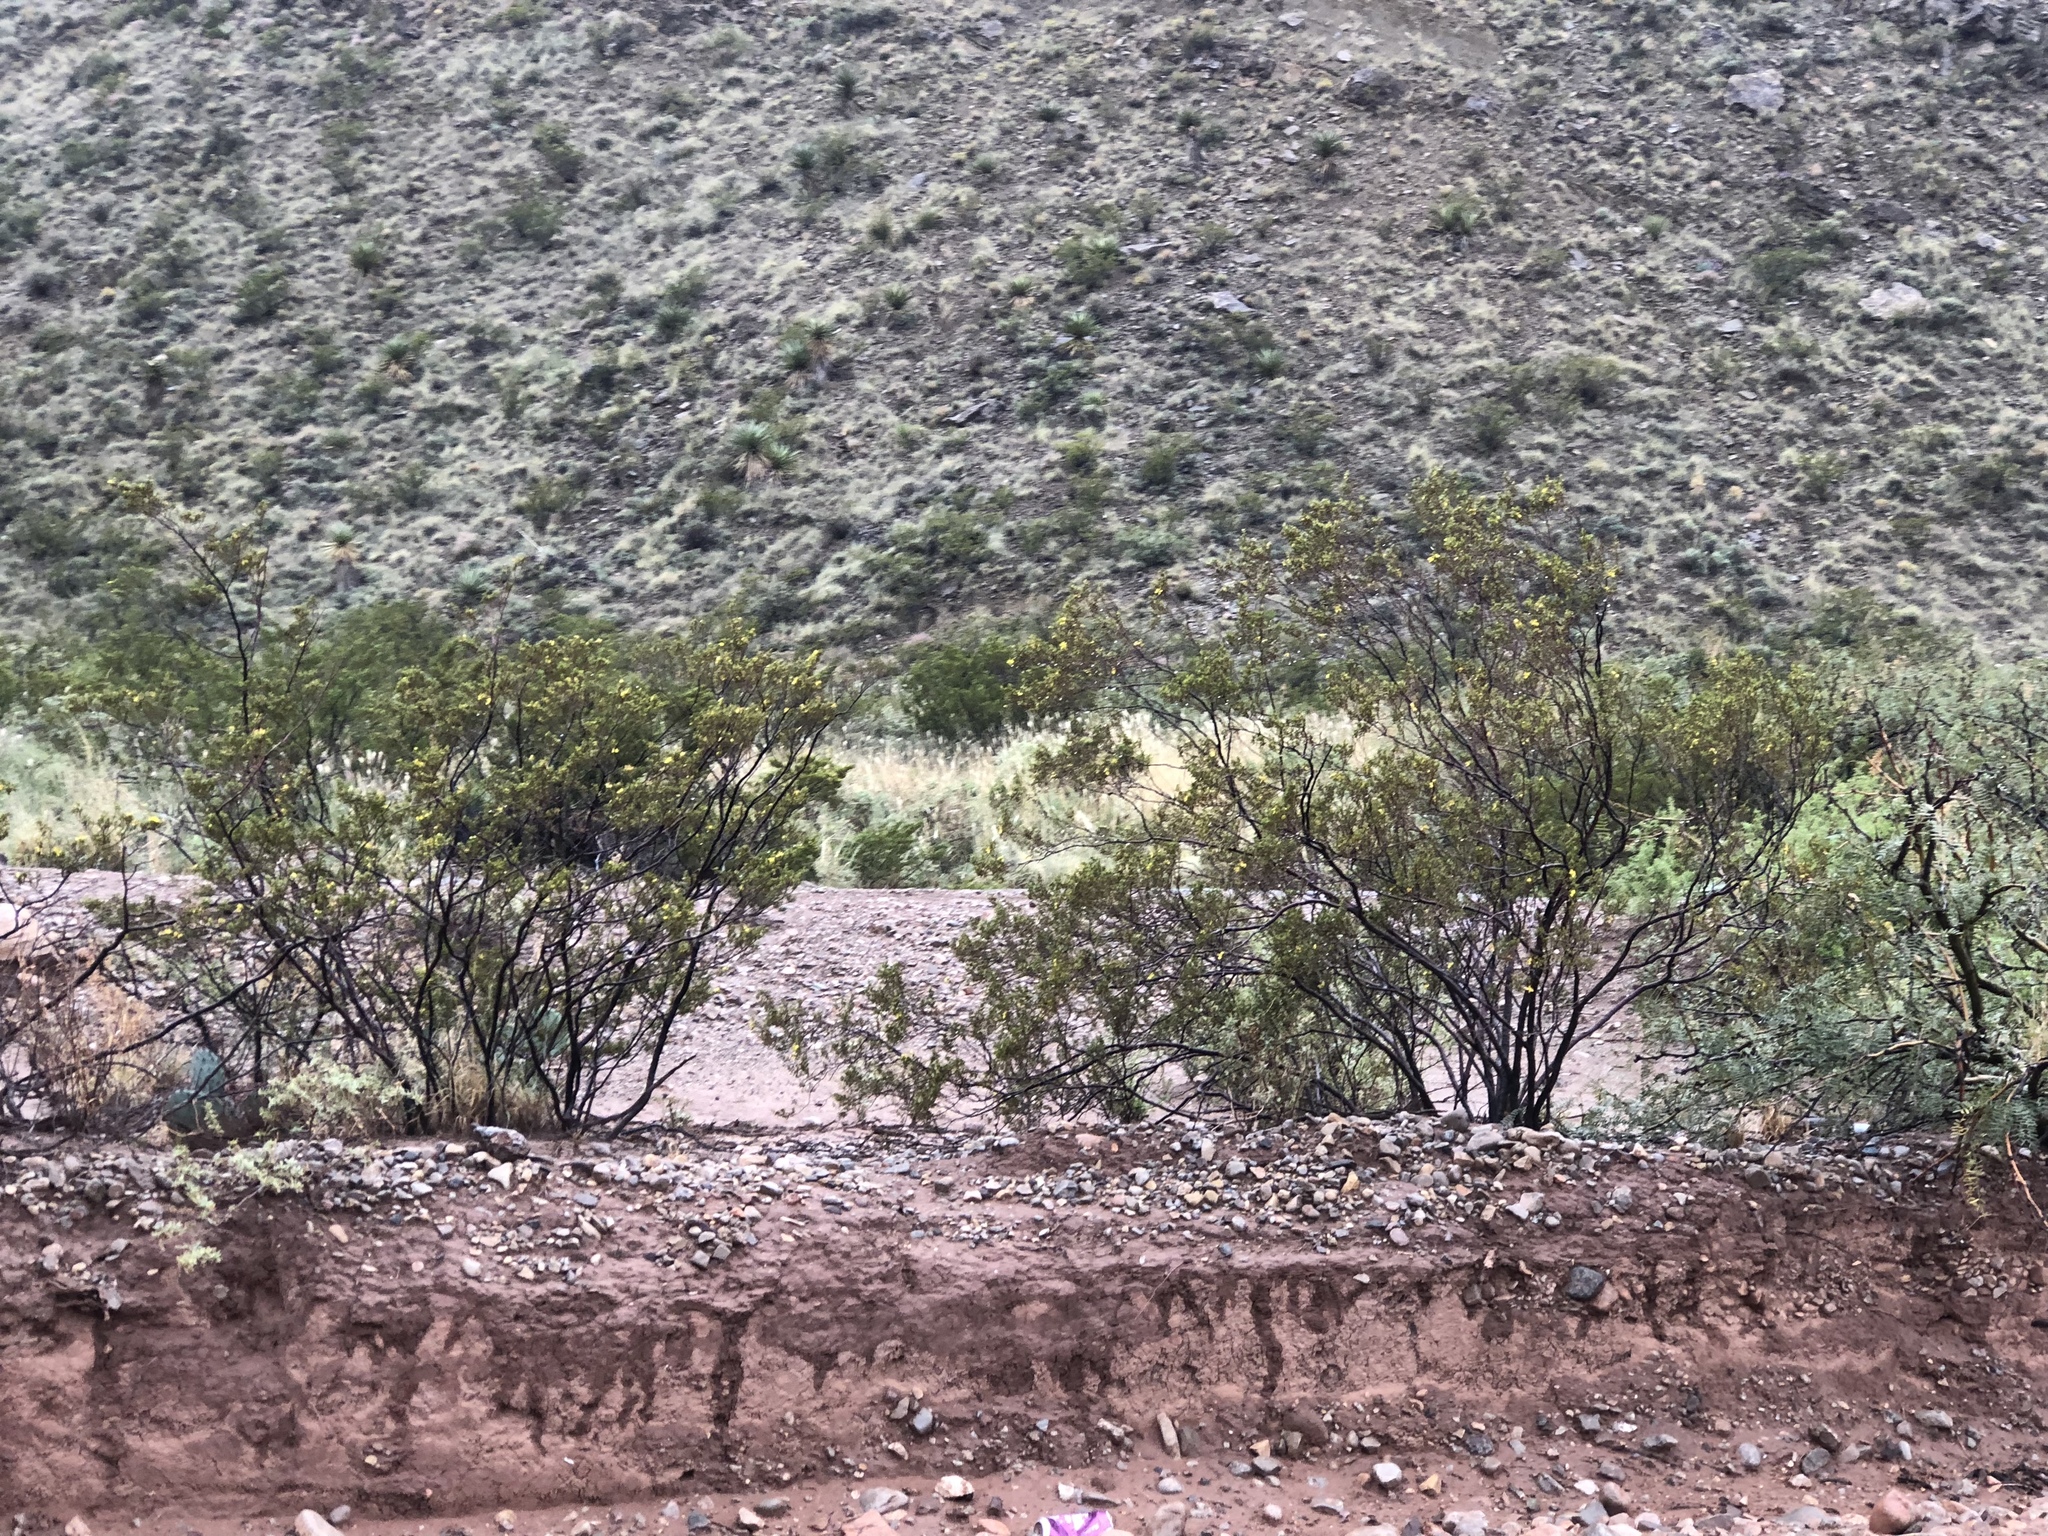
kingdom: Plantae
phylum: Tracheophyta
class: Magnoliopsida
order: Zygophyllales
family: Zygophyllaceae
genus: Larrea
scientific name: Larrea tridentata
